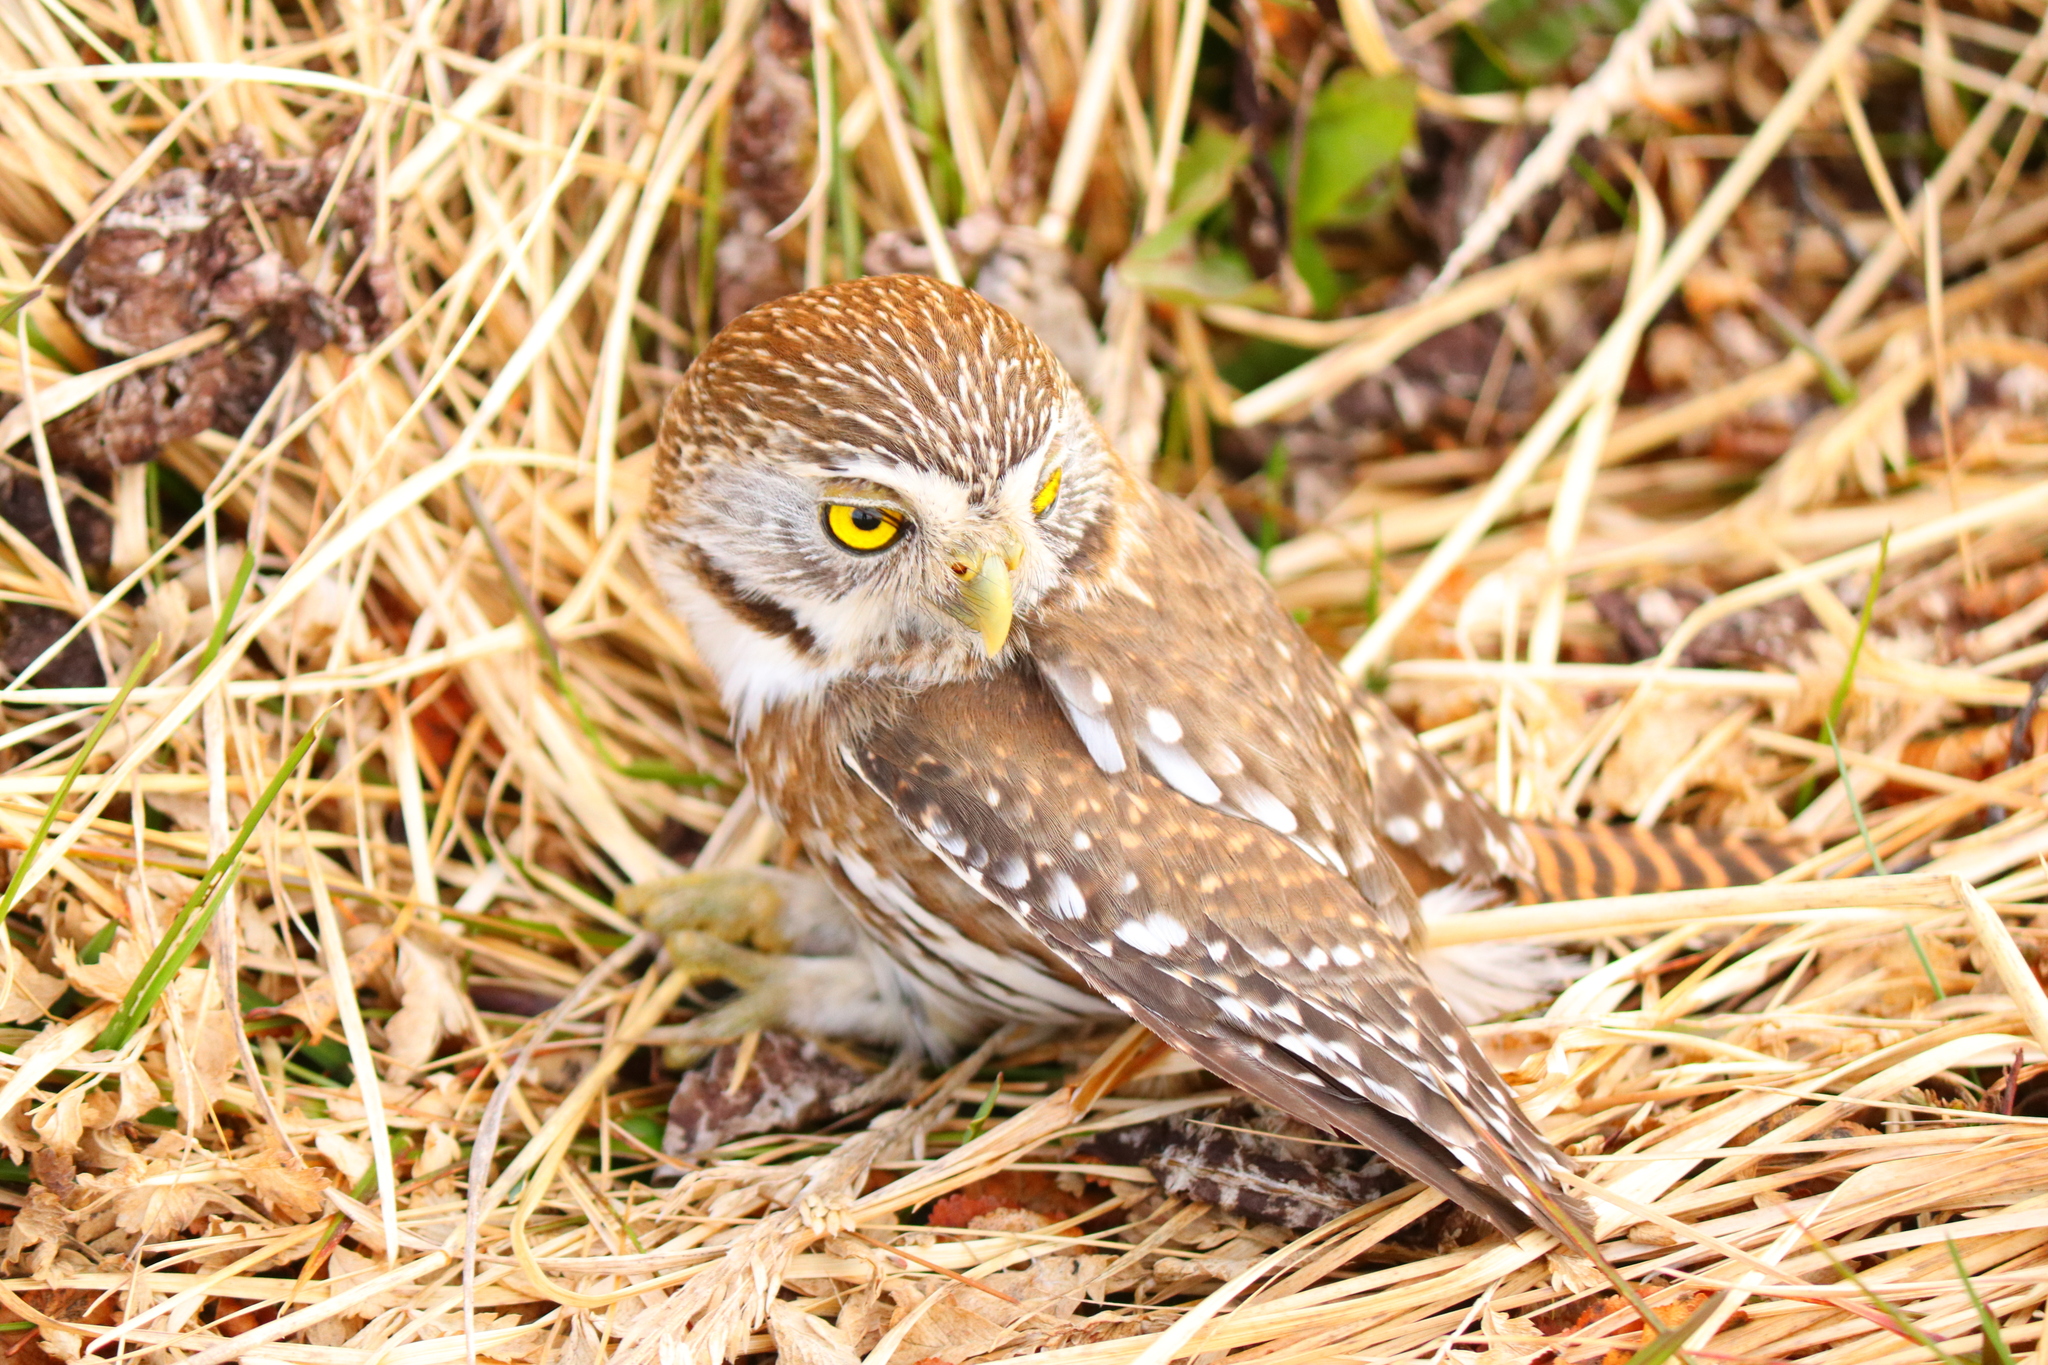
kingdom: Animalia
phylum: Chordata
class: Aves
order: Strigiformes
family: Strigidae
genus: Glaucidium
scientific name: Glaucidium nana
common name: Austral pygmy-owl
